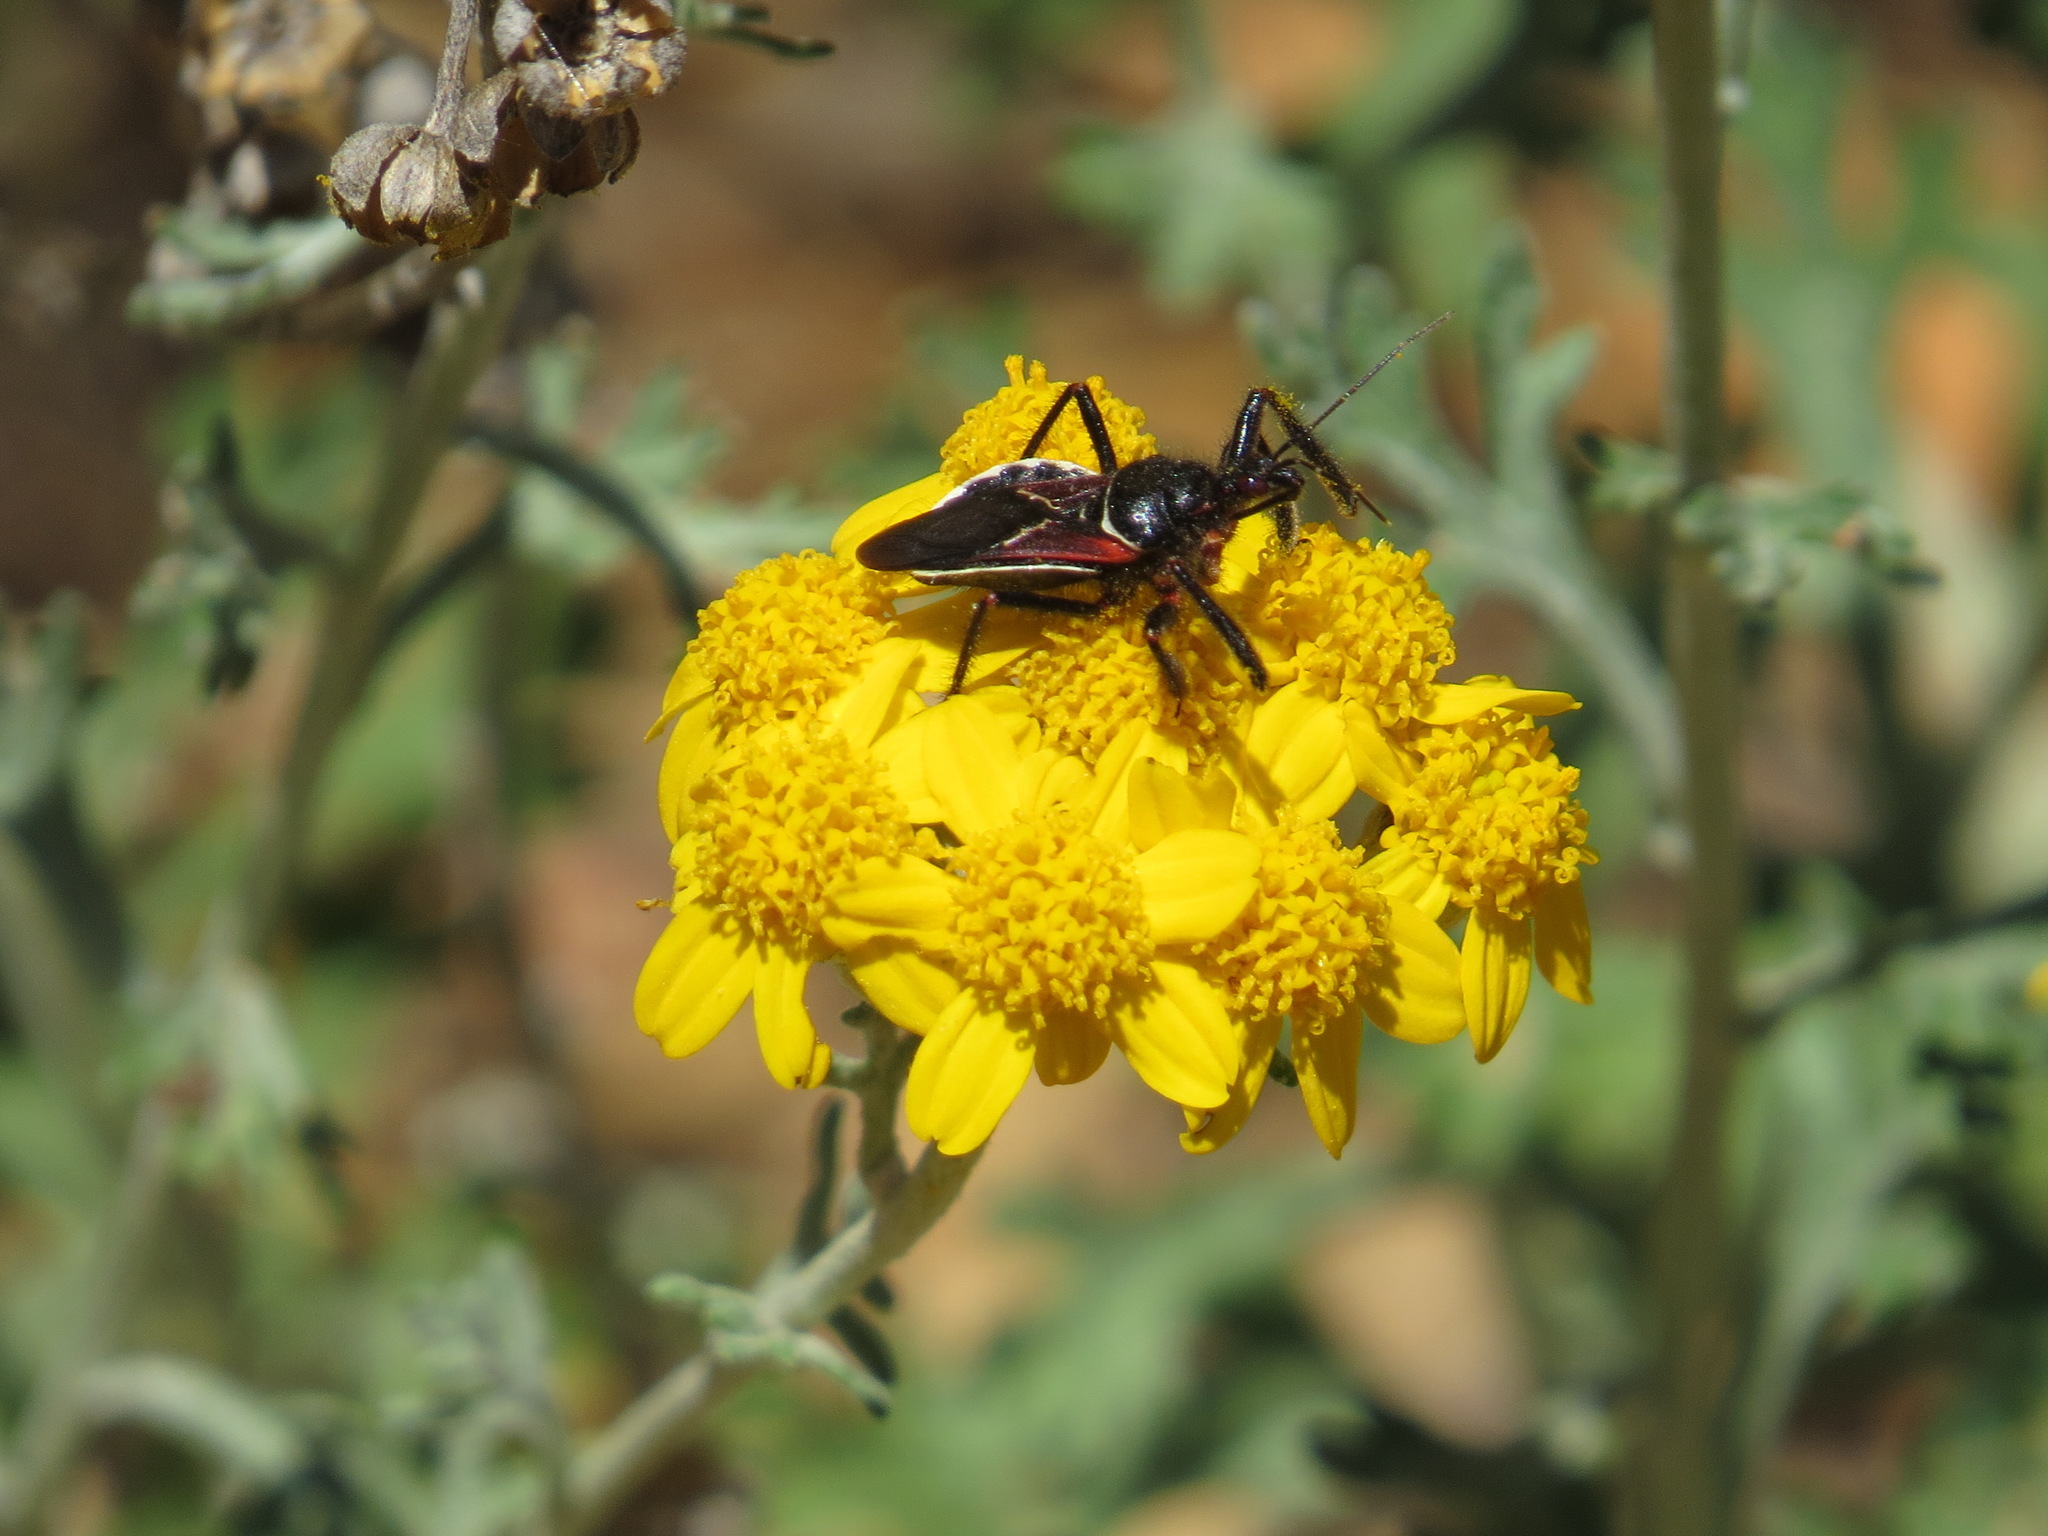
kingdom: Animalia
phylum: Arthropoda
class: Insecta
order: Hemiptera
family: Reduviidae
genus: Apiomerus
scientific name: Apiomerus californicus
